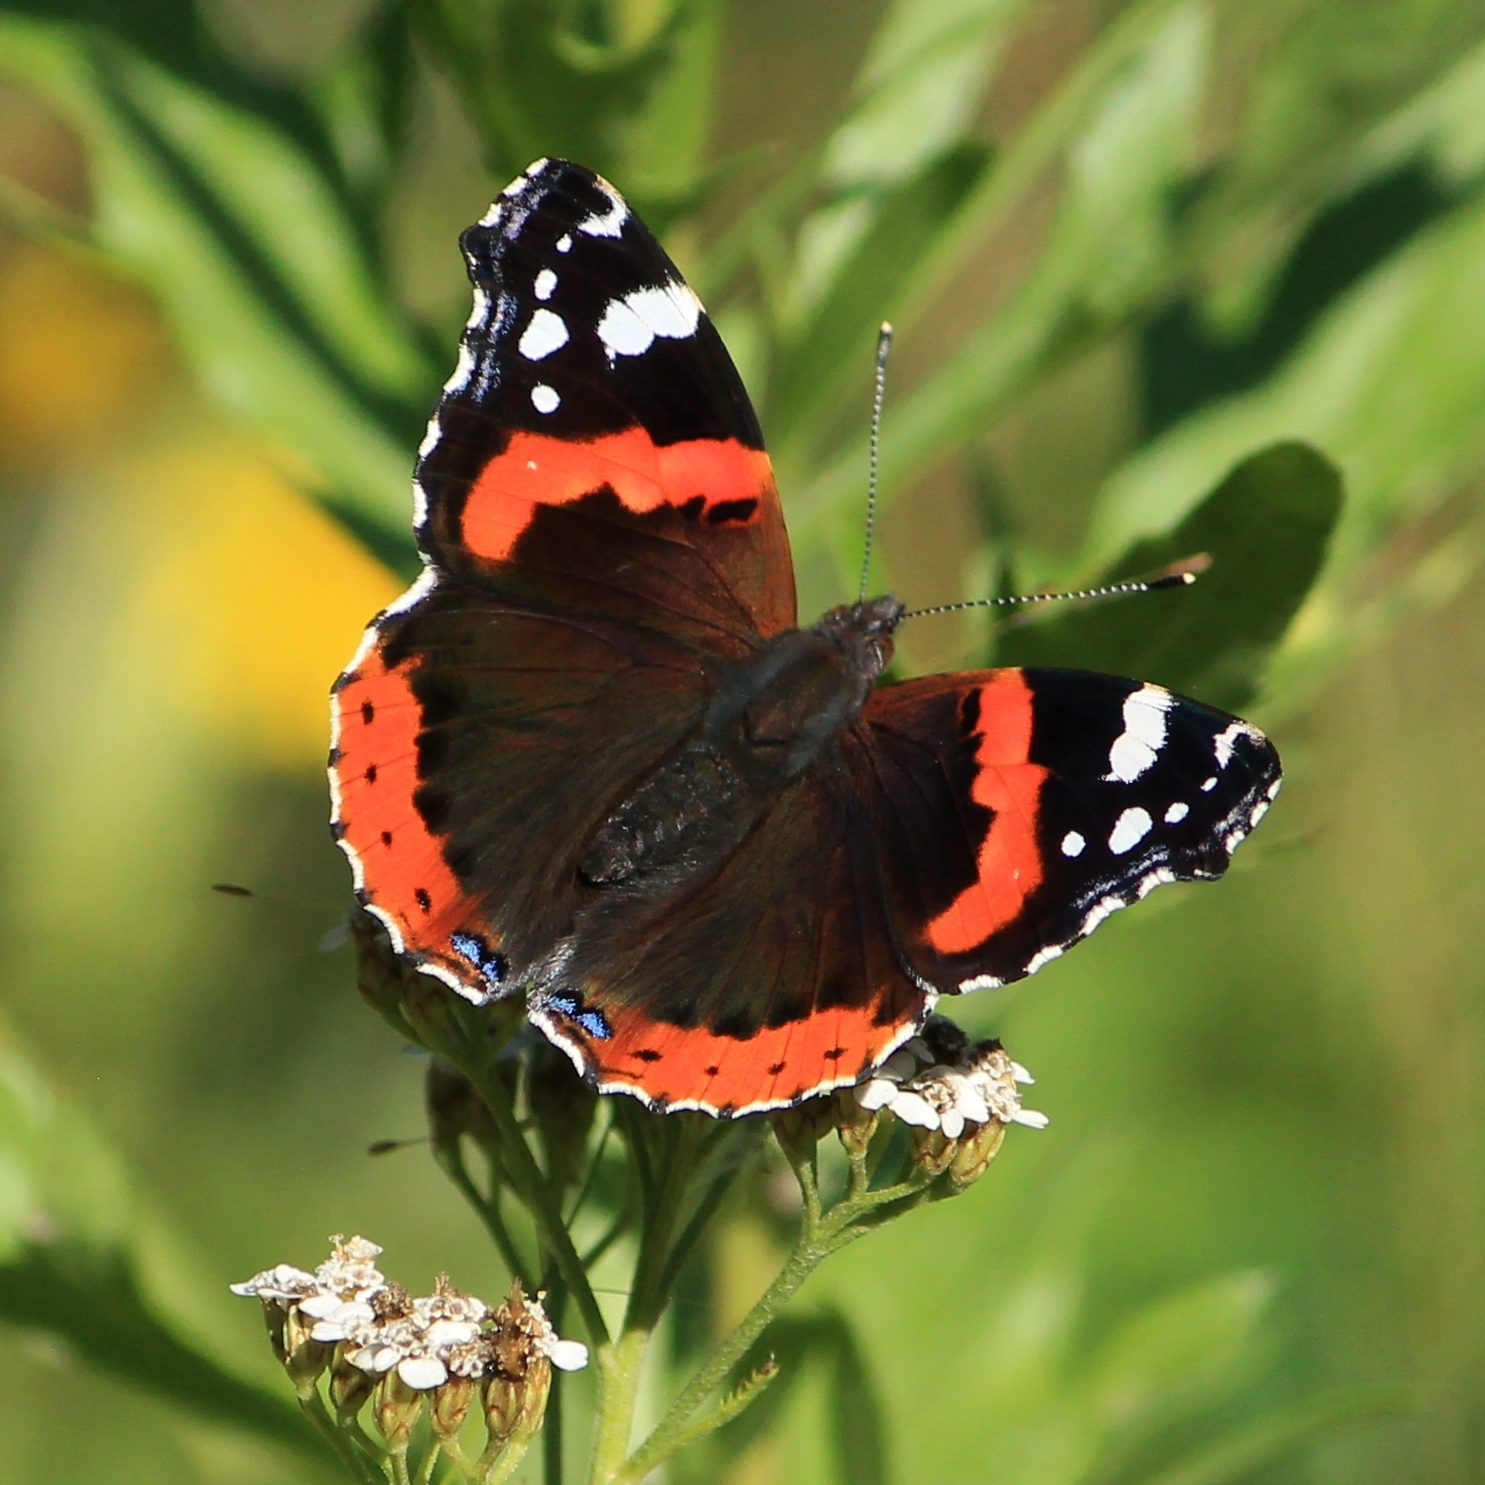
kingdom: Animalia
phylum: Arthropoda
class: Insecta
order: Lepidoptera
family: Nymphalidae
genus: Vanessa
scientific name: Vanessa atalanta
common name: Red admiral
